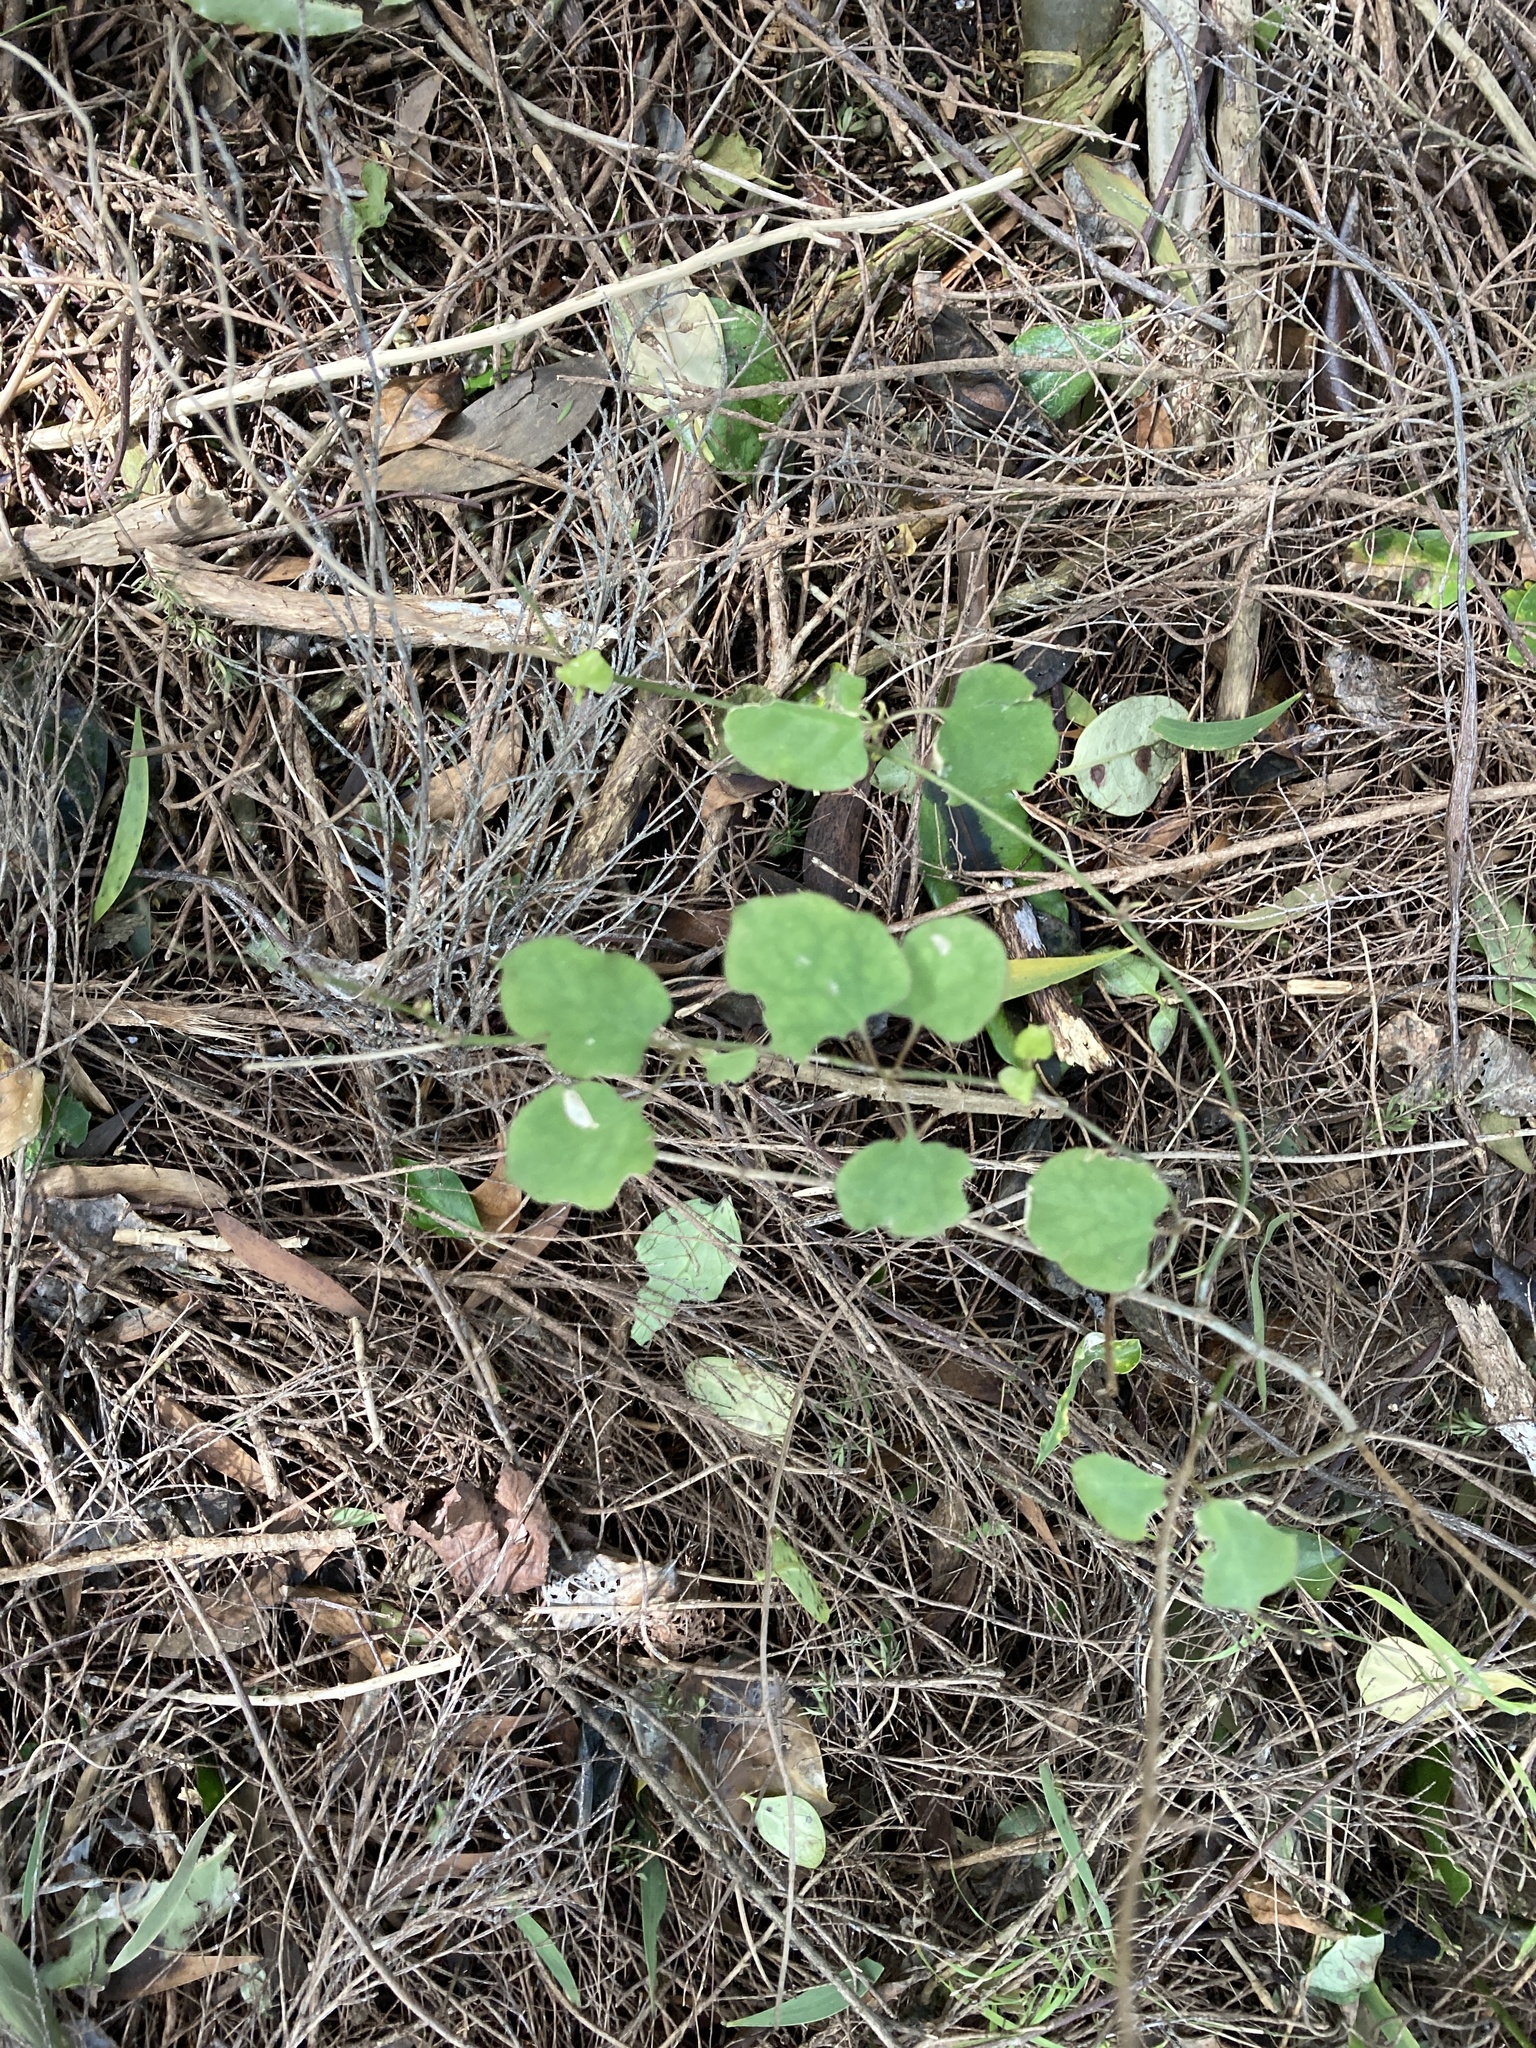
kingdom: Plantae
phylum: Tracheophyta
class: Magnoliopsida
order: Caryophyllales
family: Polygonaceae
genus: Muehlenbeckia
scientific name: Muehlenbeckia australis
